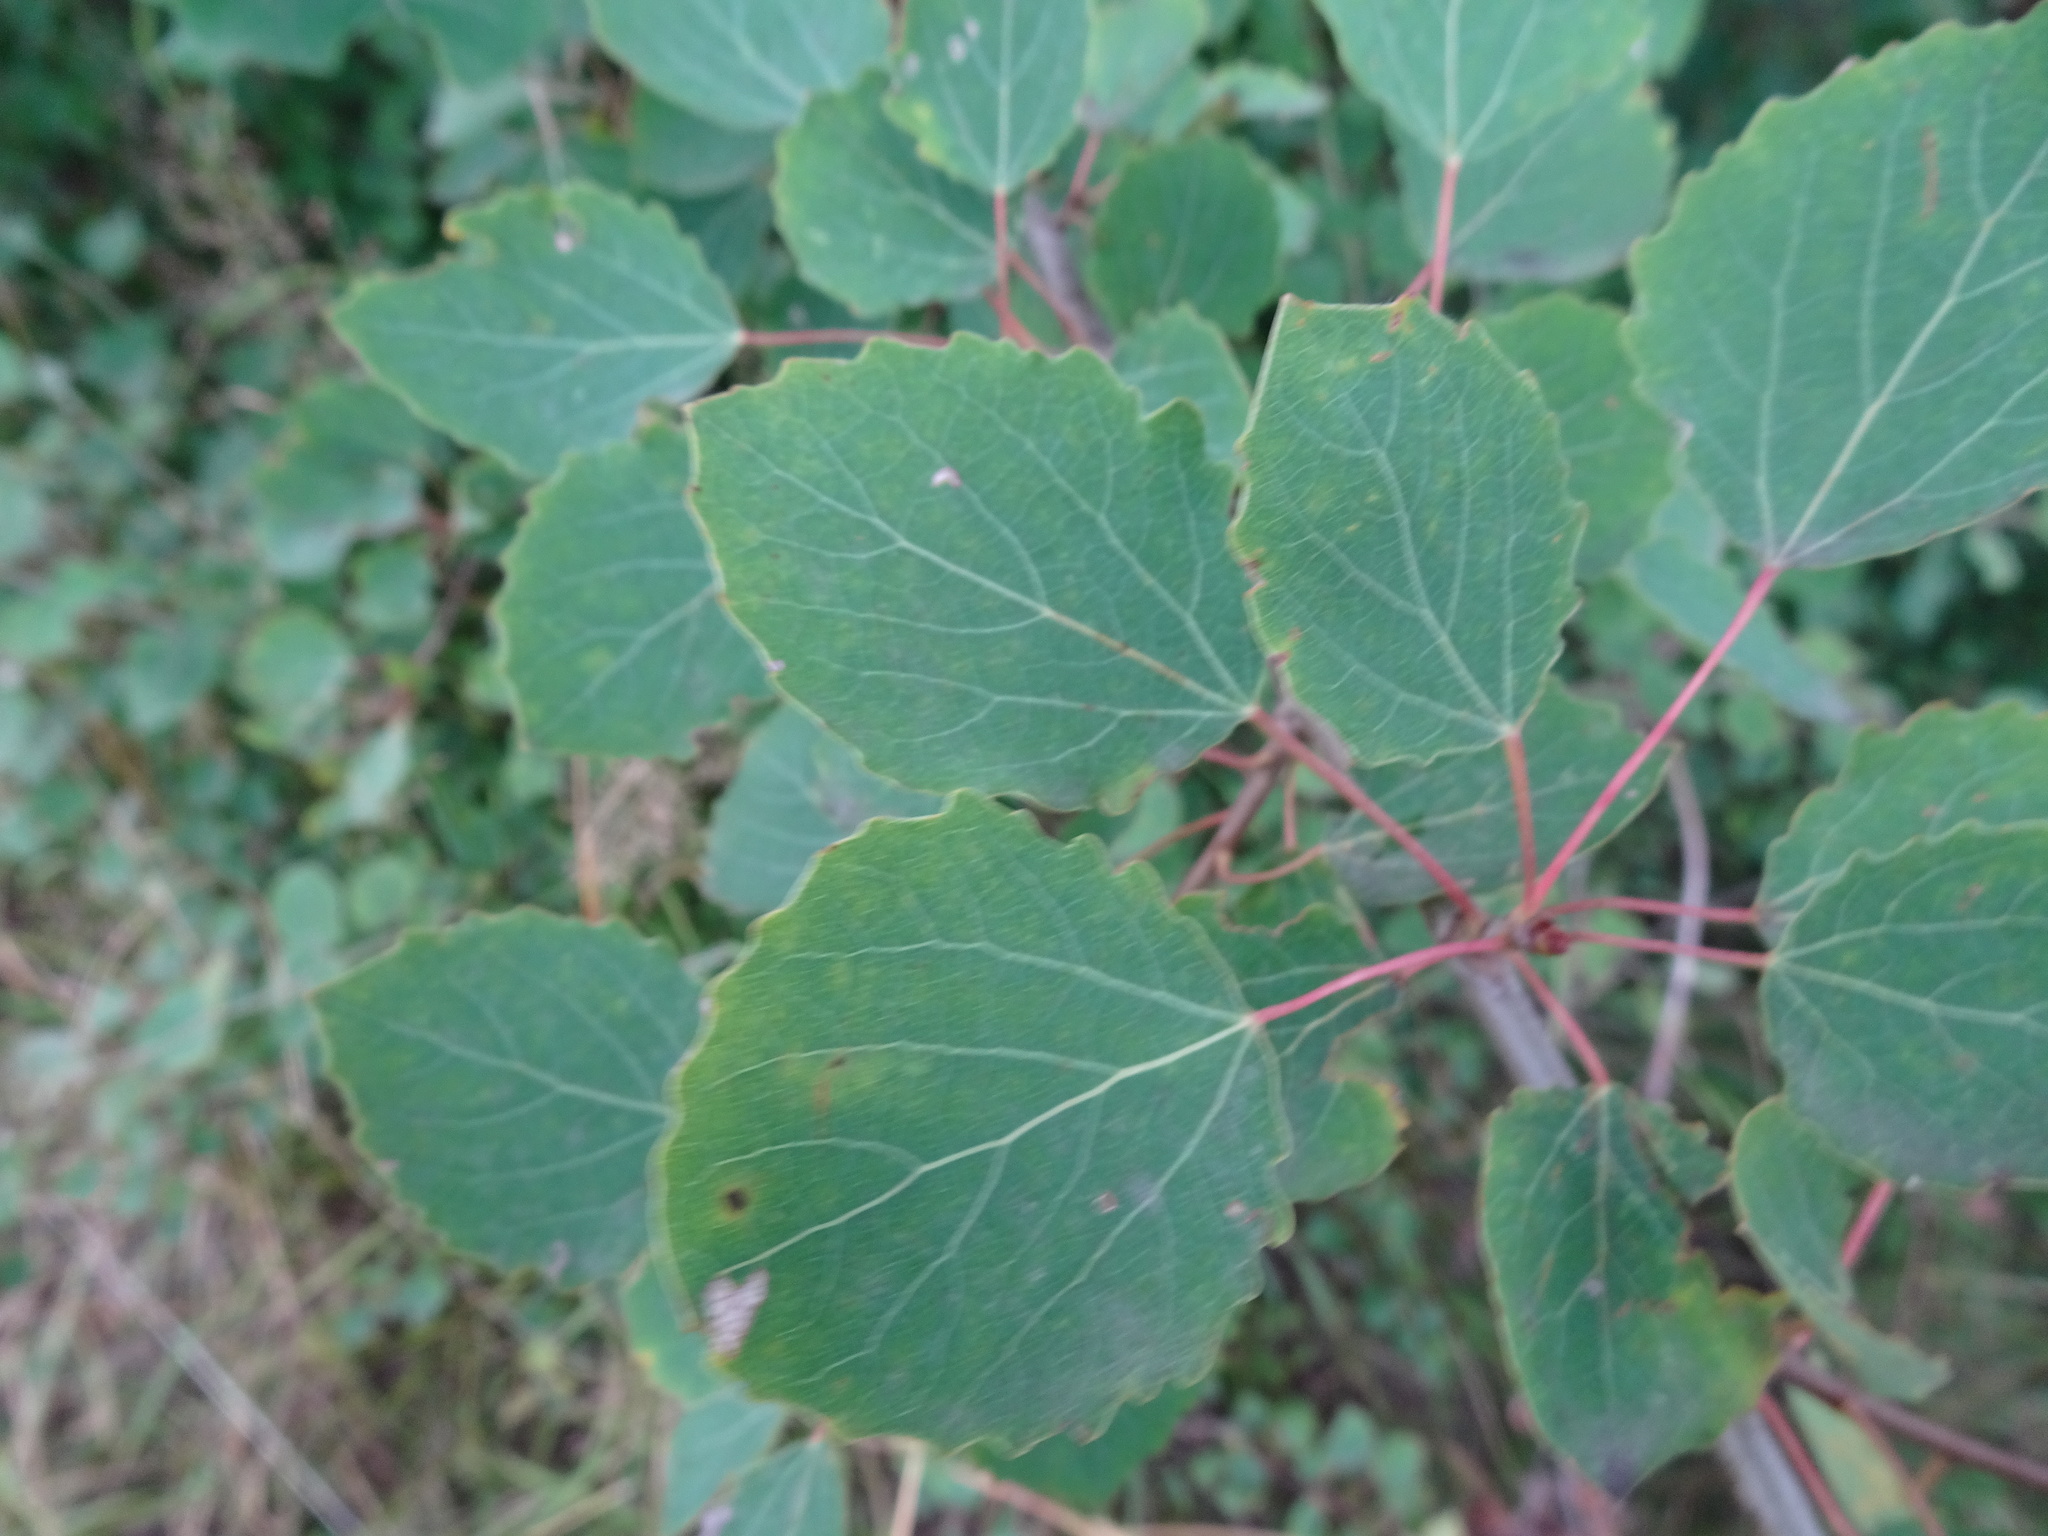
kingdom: Plantae
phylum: Tracheophyta
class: Magnoliopsida
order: Malpighiales
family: Salicaceae
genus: Populus
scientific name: Populus tremula
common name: European aspen
